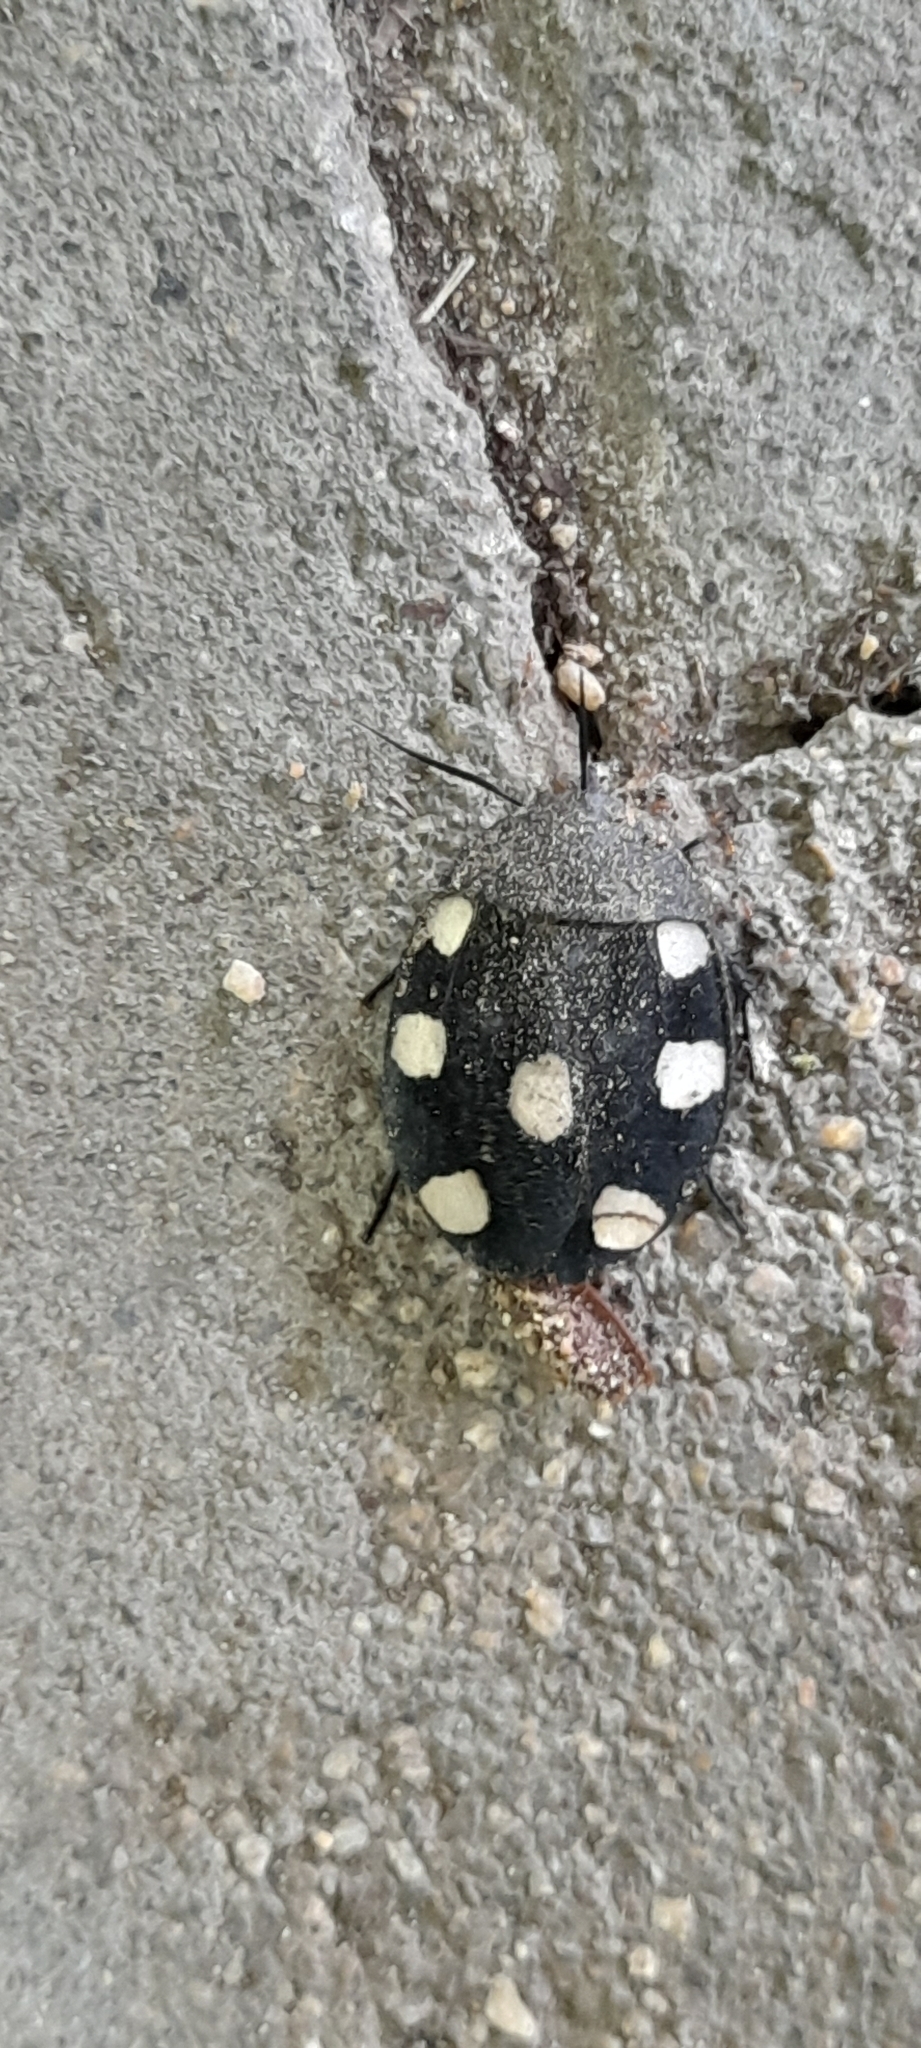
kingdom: Animalia
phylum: Arthropoda
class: Insecta
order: Blattodea
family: Corydiidae
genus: Therea
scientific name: Therea petiveriana
